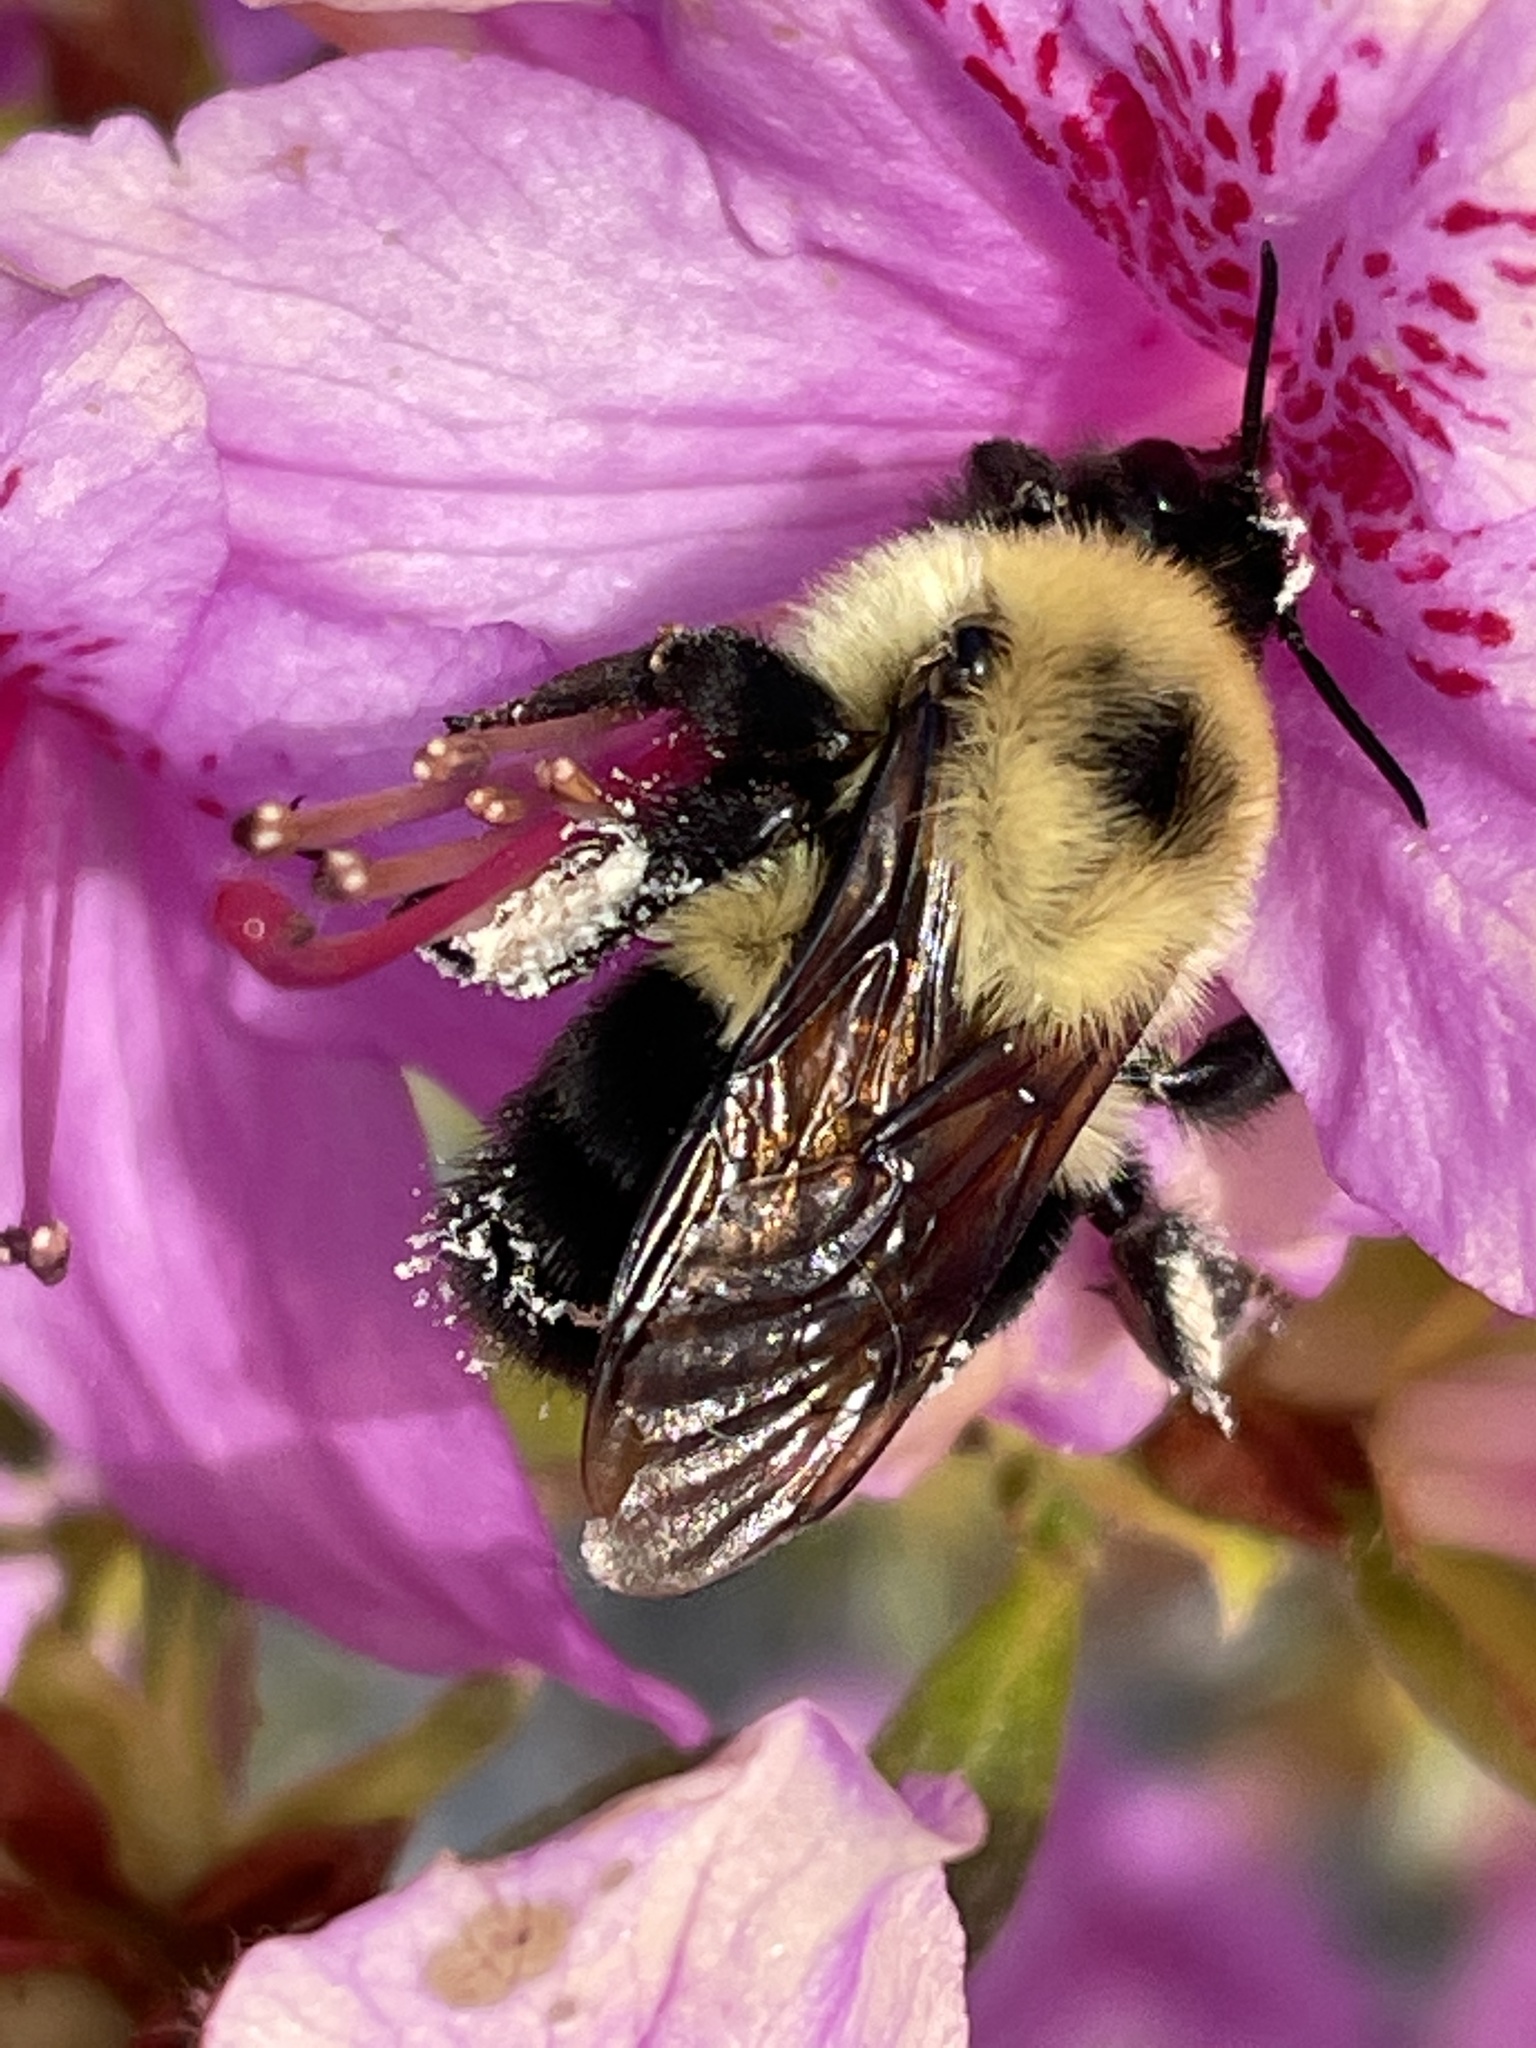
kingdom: Animalia
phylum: Arthropoda
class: Insecta
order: Hymenoptera
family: Apidae
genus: Bombus
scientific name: Bombus bimaculatus
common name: Two-spotted bumble bee
